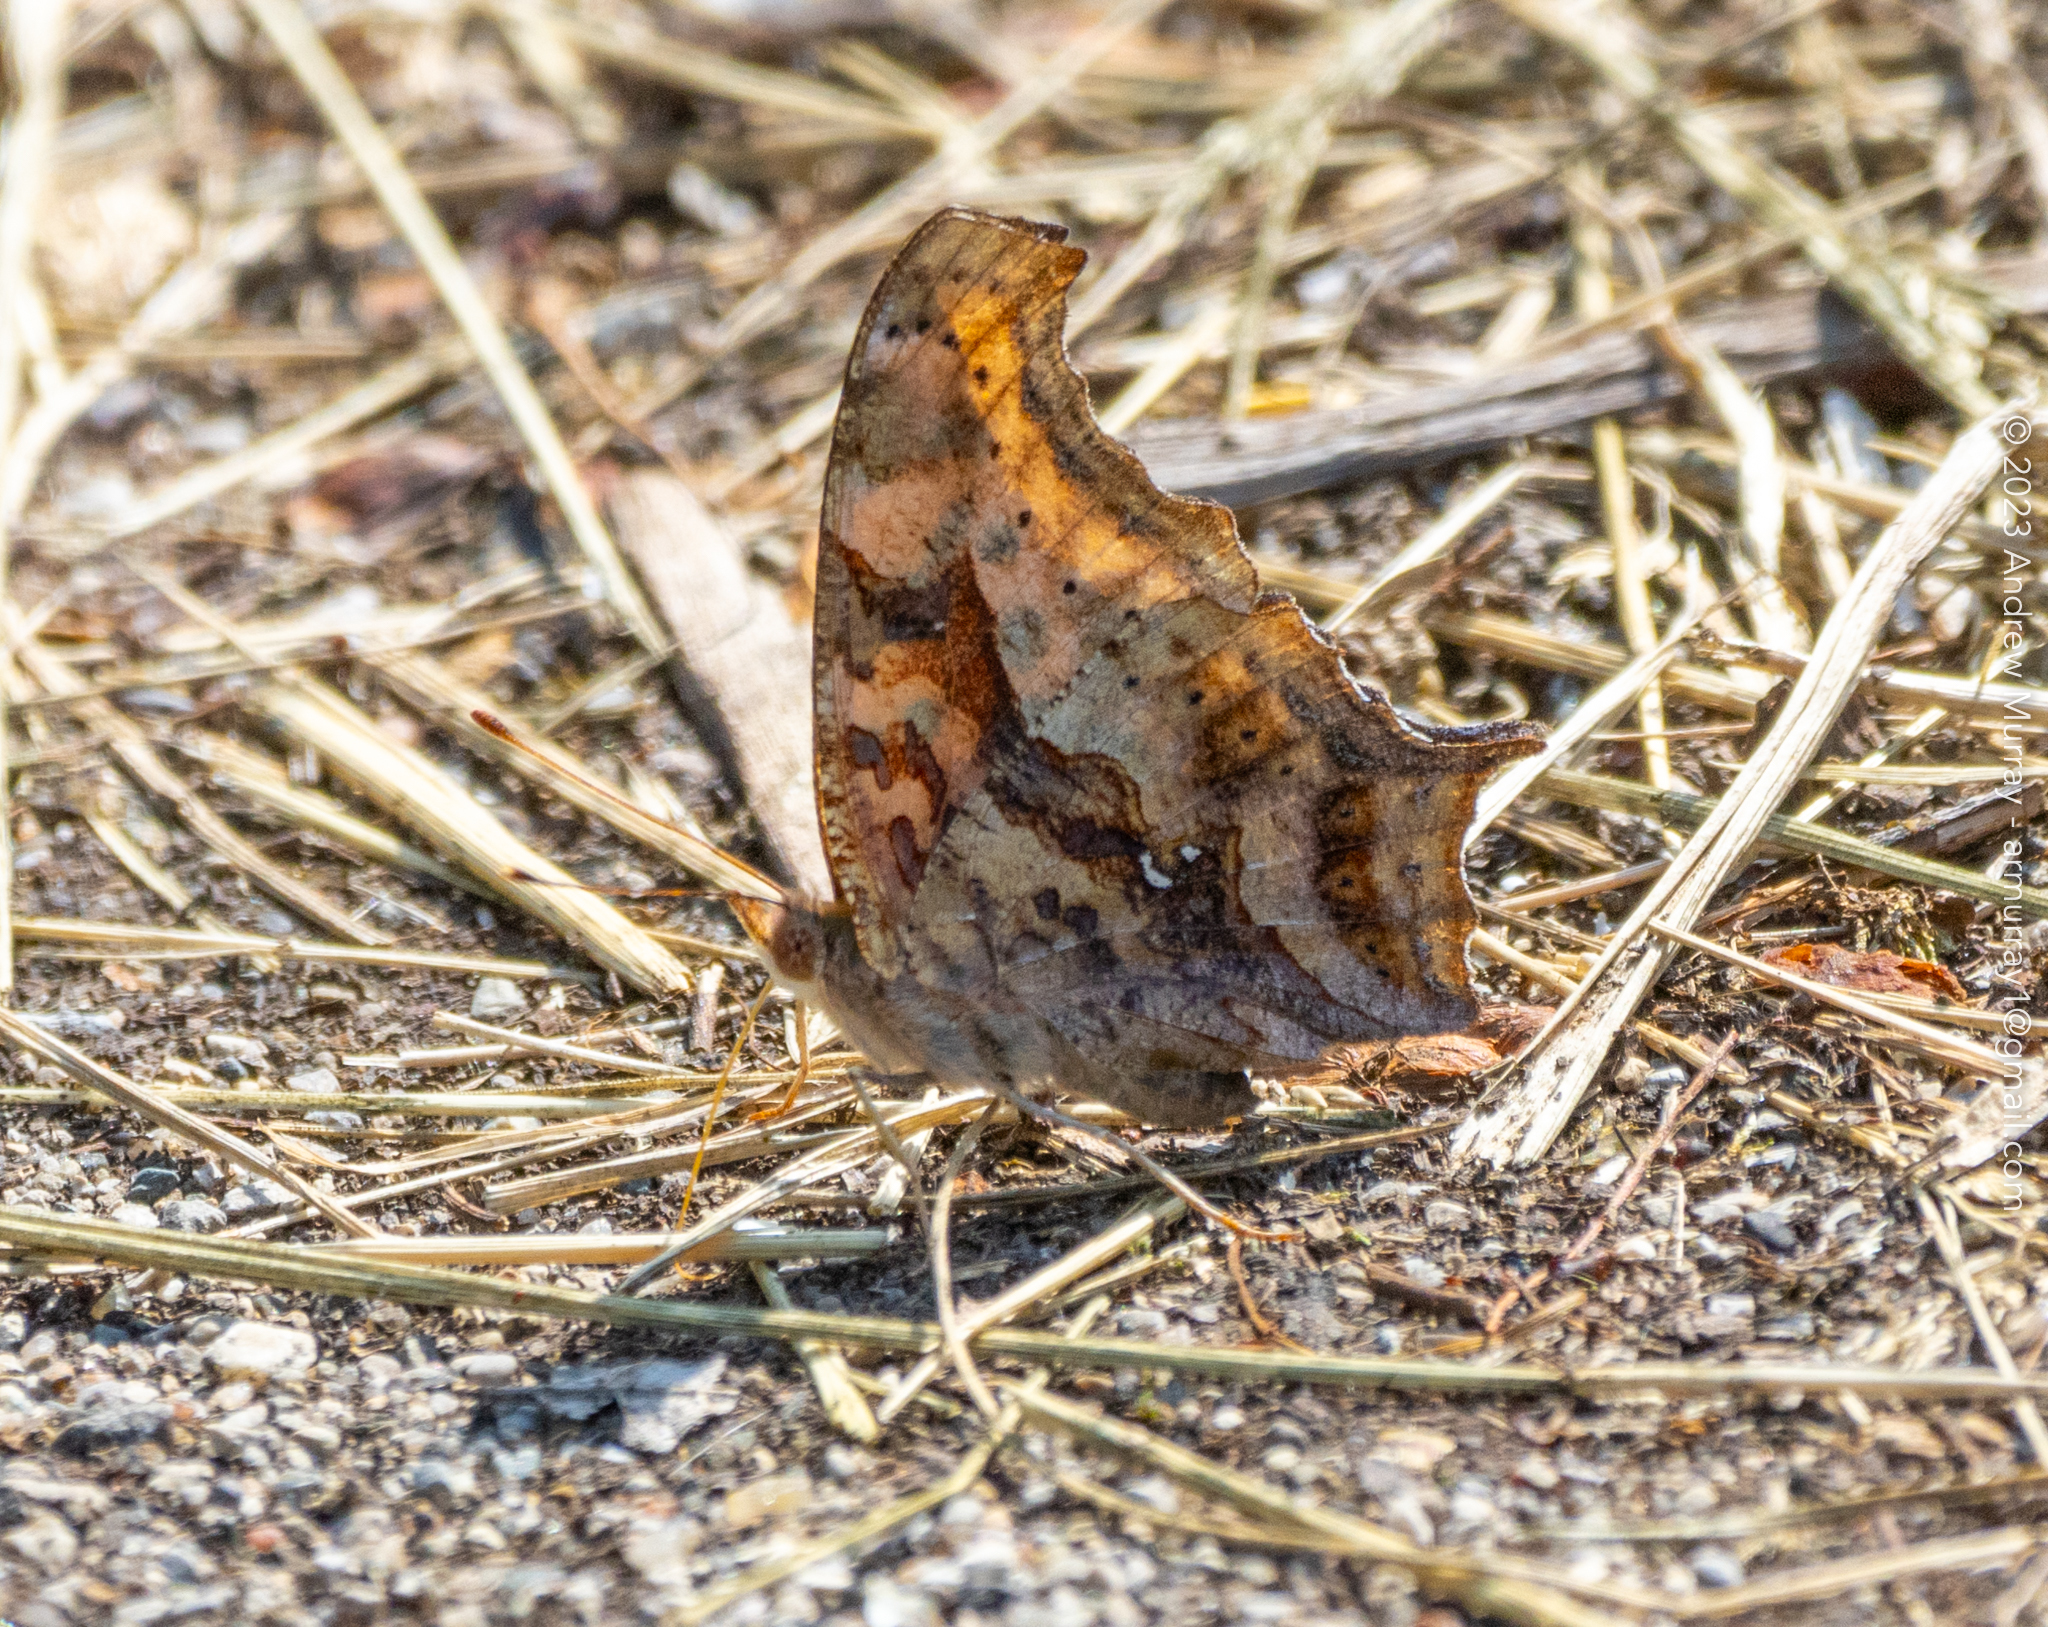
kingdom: Animalia
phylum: Arthropoda
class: Insecta
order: Lepidoptera
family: Nymphalidae
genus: Polygonia
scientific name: Polygonia interrogationis
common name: Question mark
